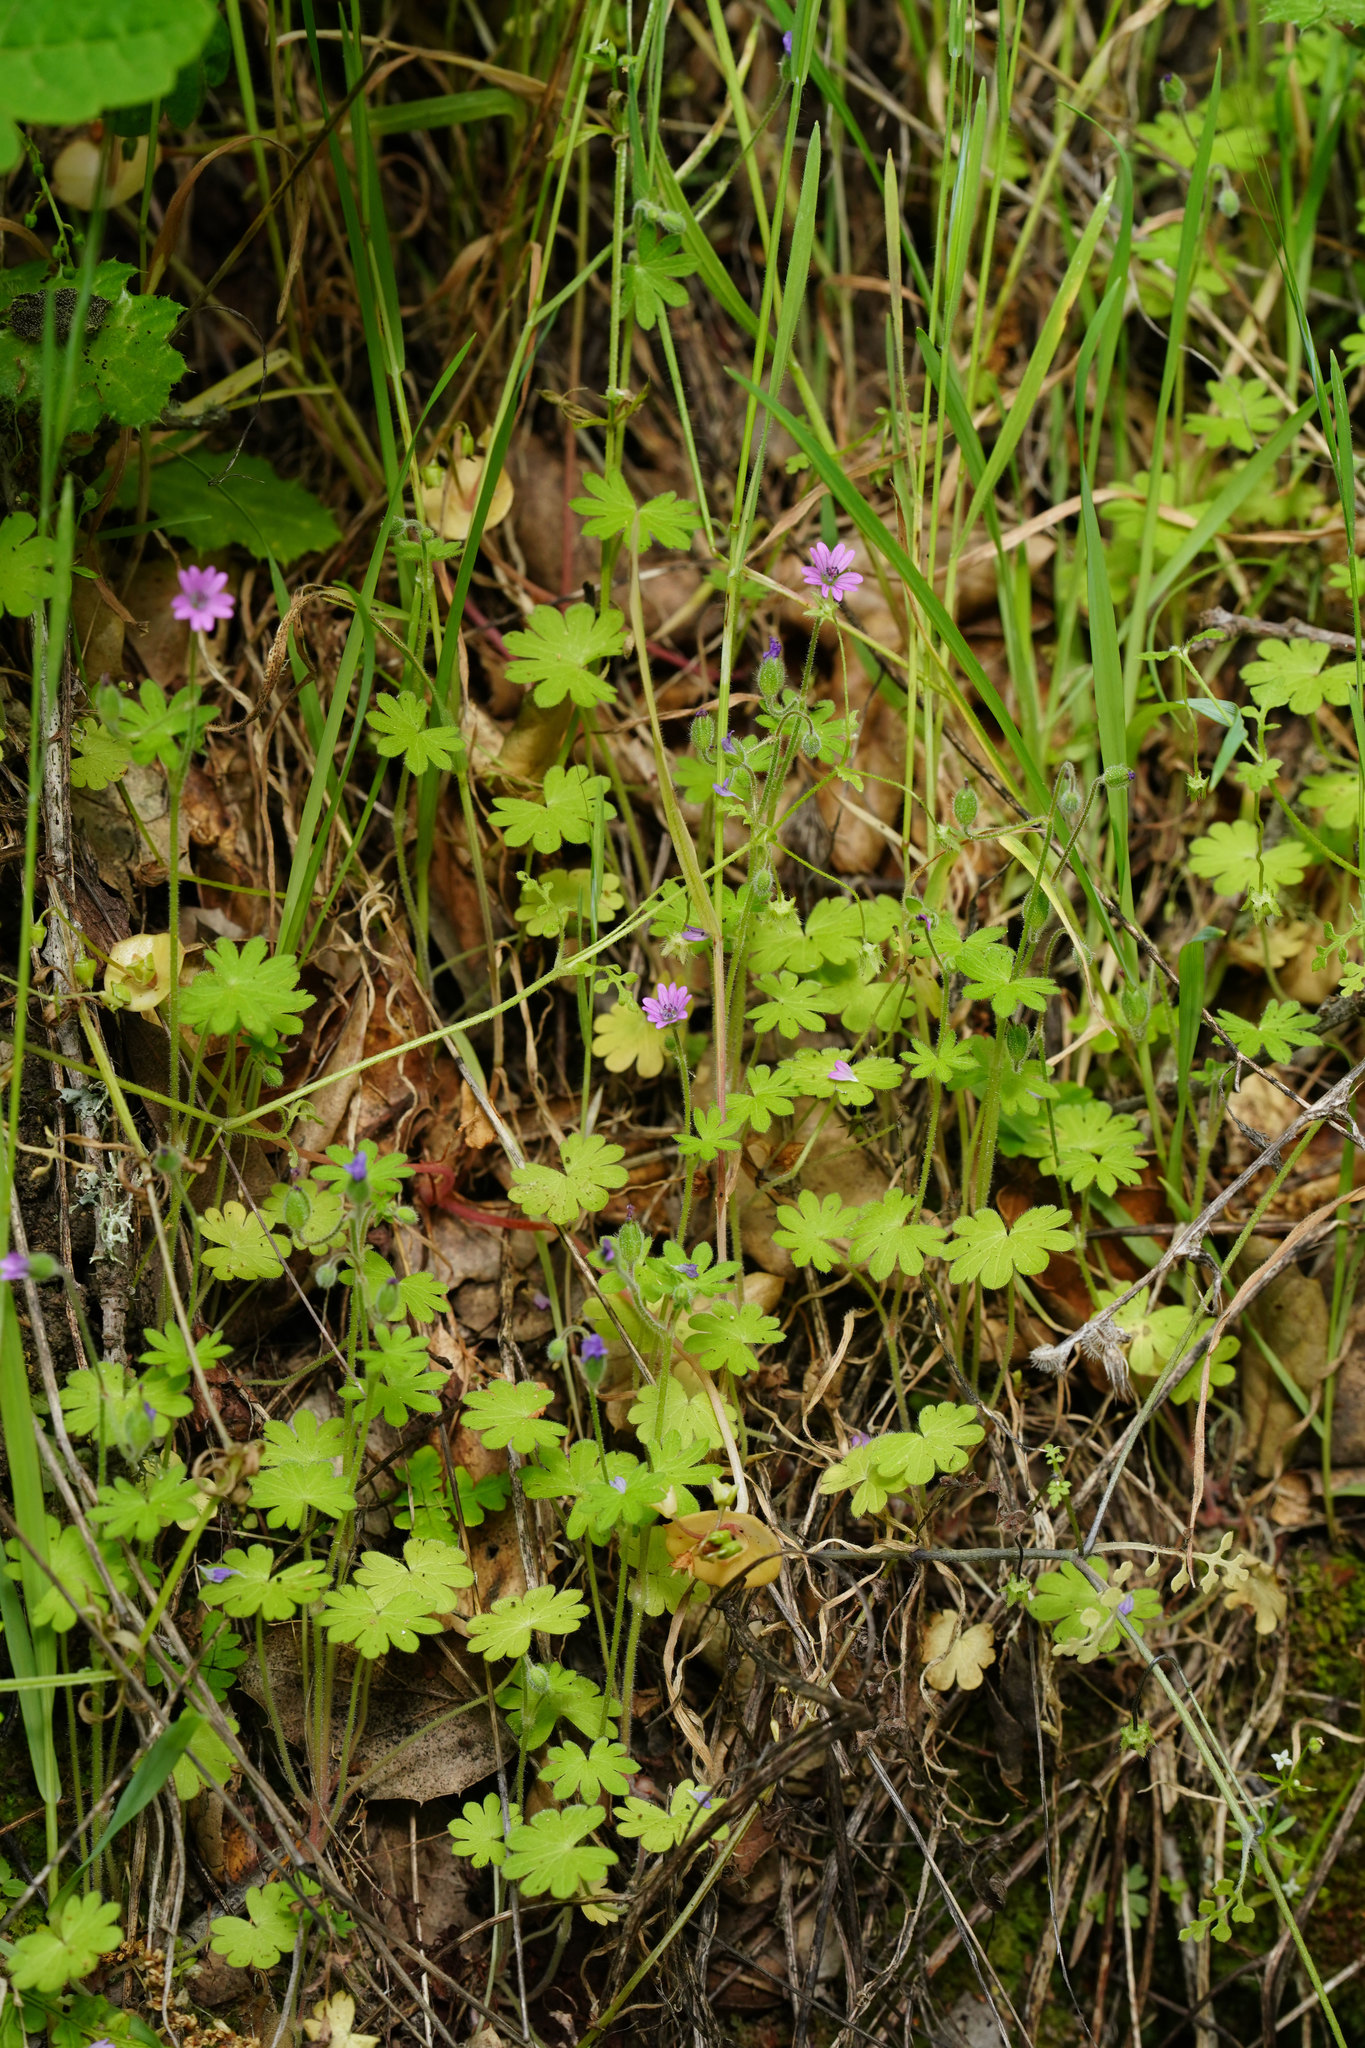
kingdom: Plantae
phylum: Tracheophyta
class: Magnoliopsida
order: Geraniales
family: Geraniaceae
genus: Geranium
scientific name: Geranium molle
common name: Dove's-foot crane's-bill
